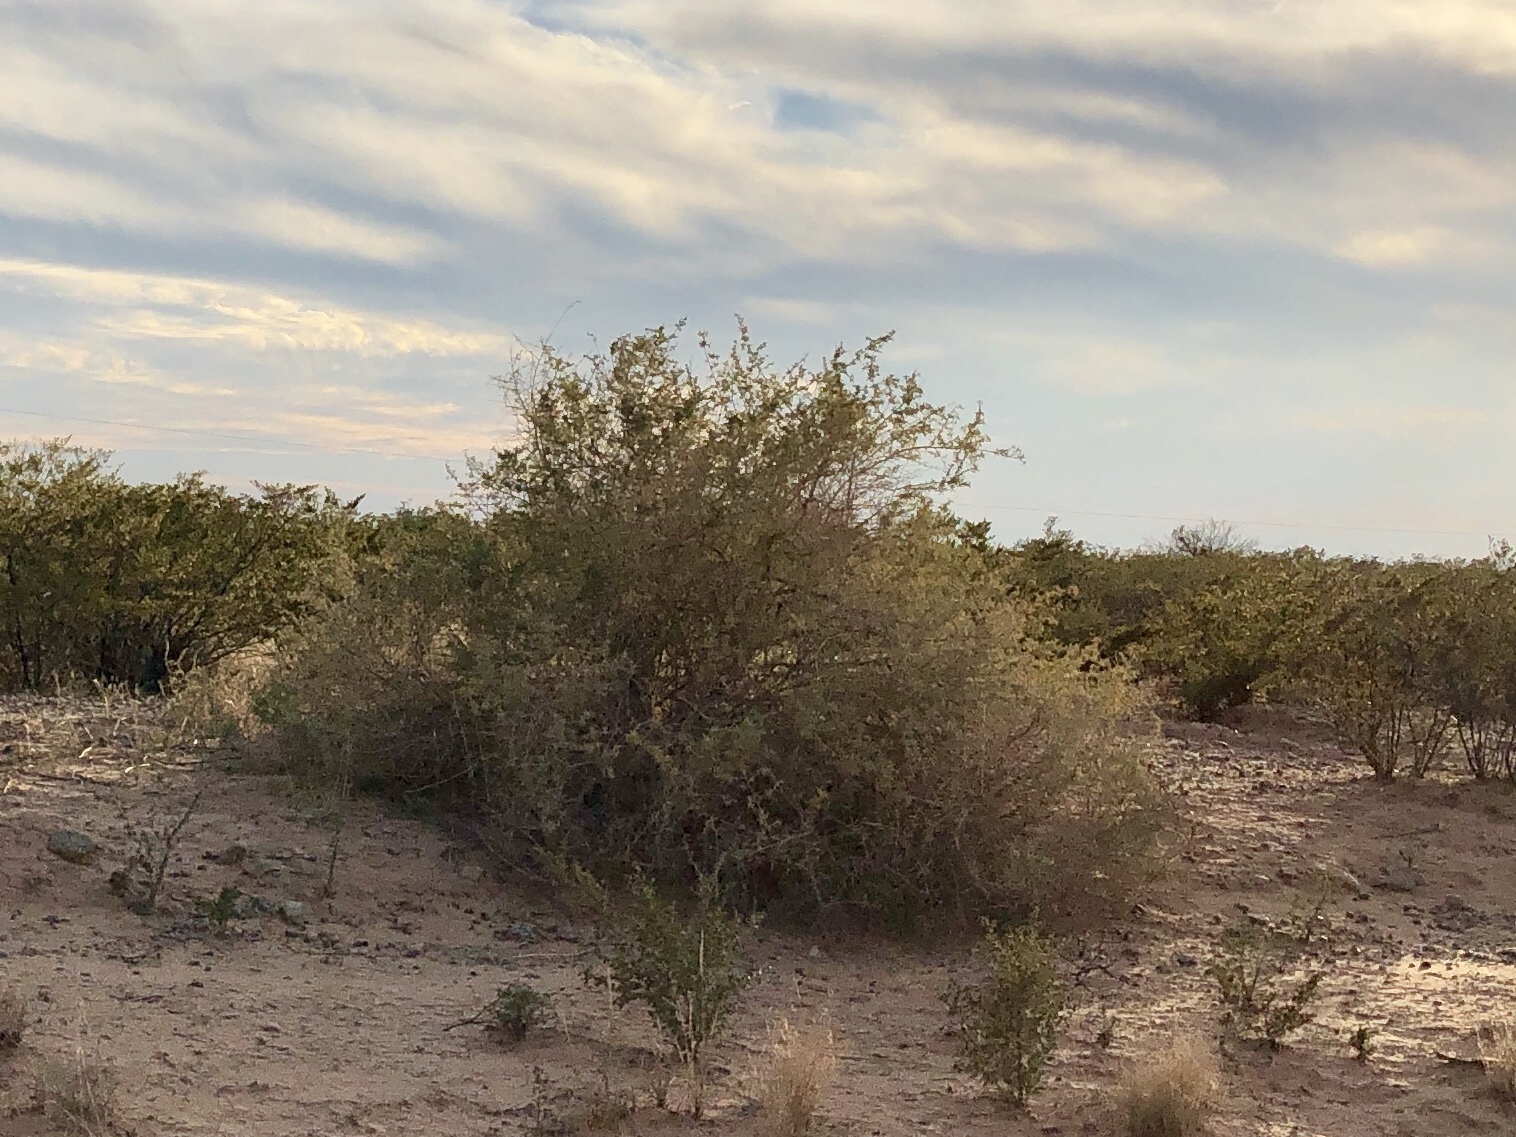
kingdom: Plantae
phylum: Tracheophyta
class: Magnoliopsida
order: Caryophyllales
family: Amaranthaceae
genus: Atriplex
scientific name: Atriplex canescens
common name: Four-wing saltbush
